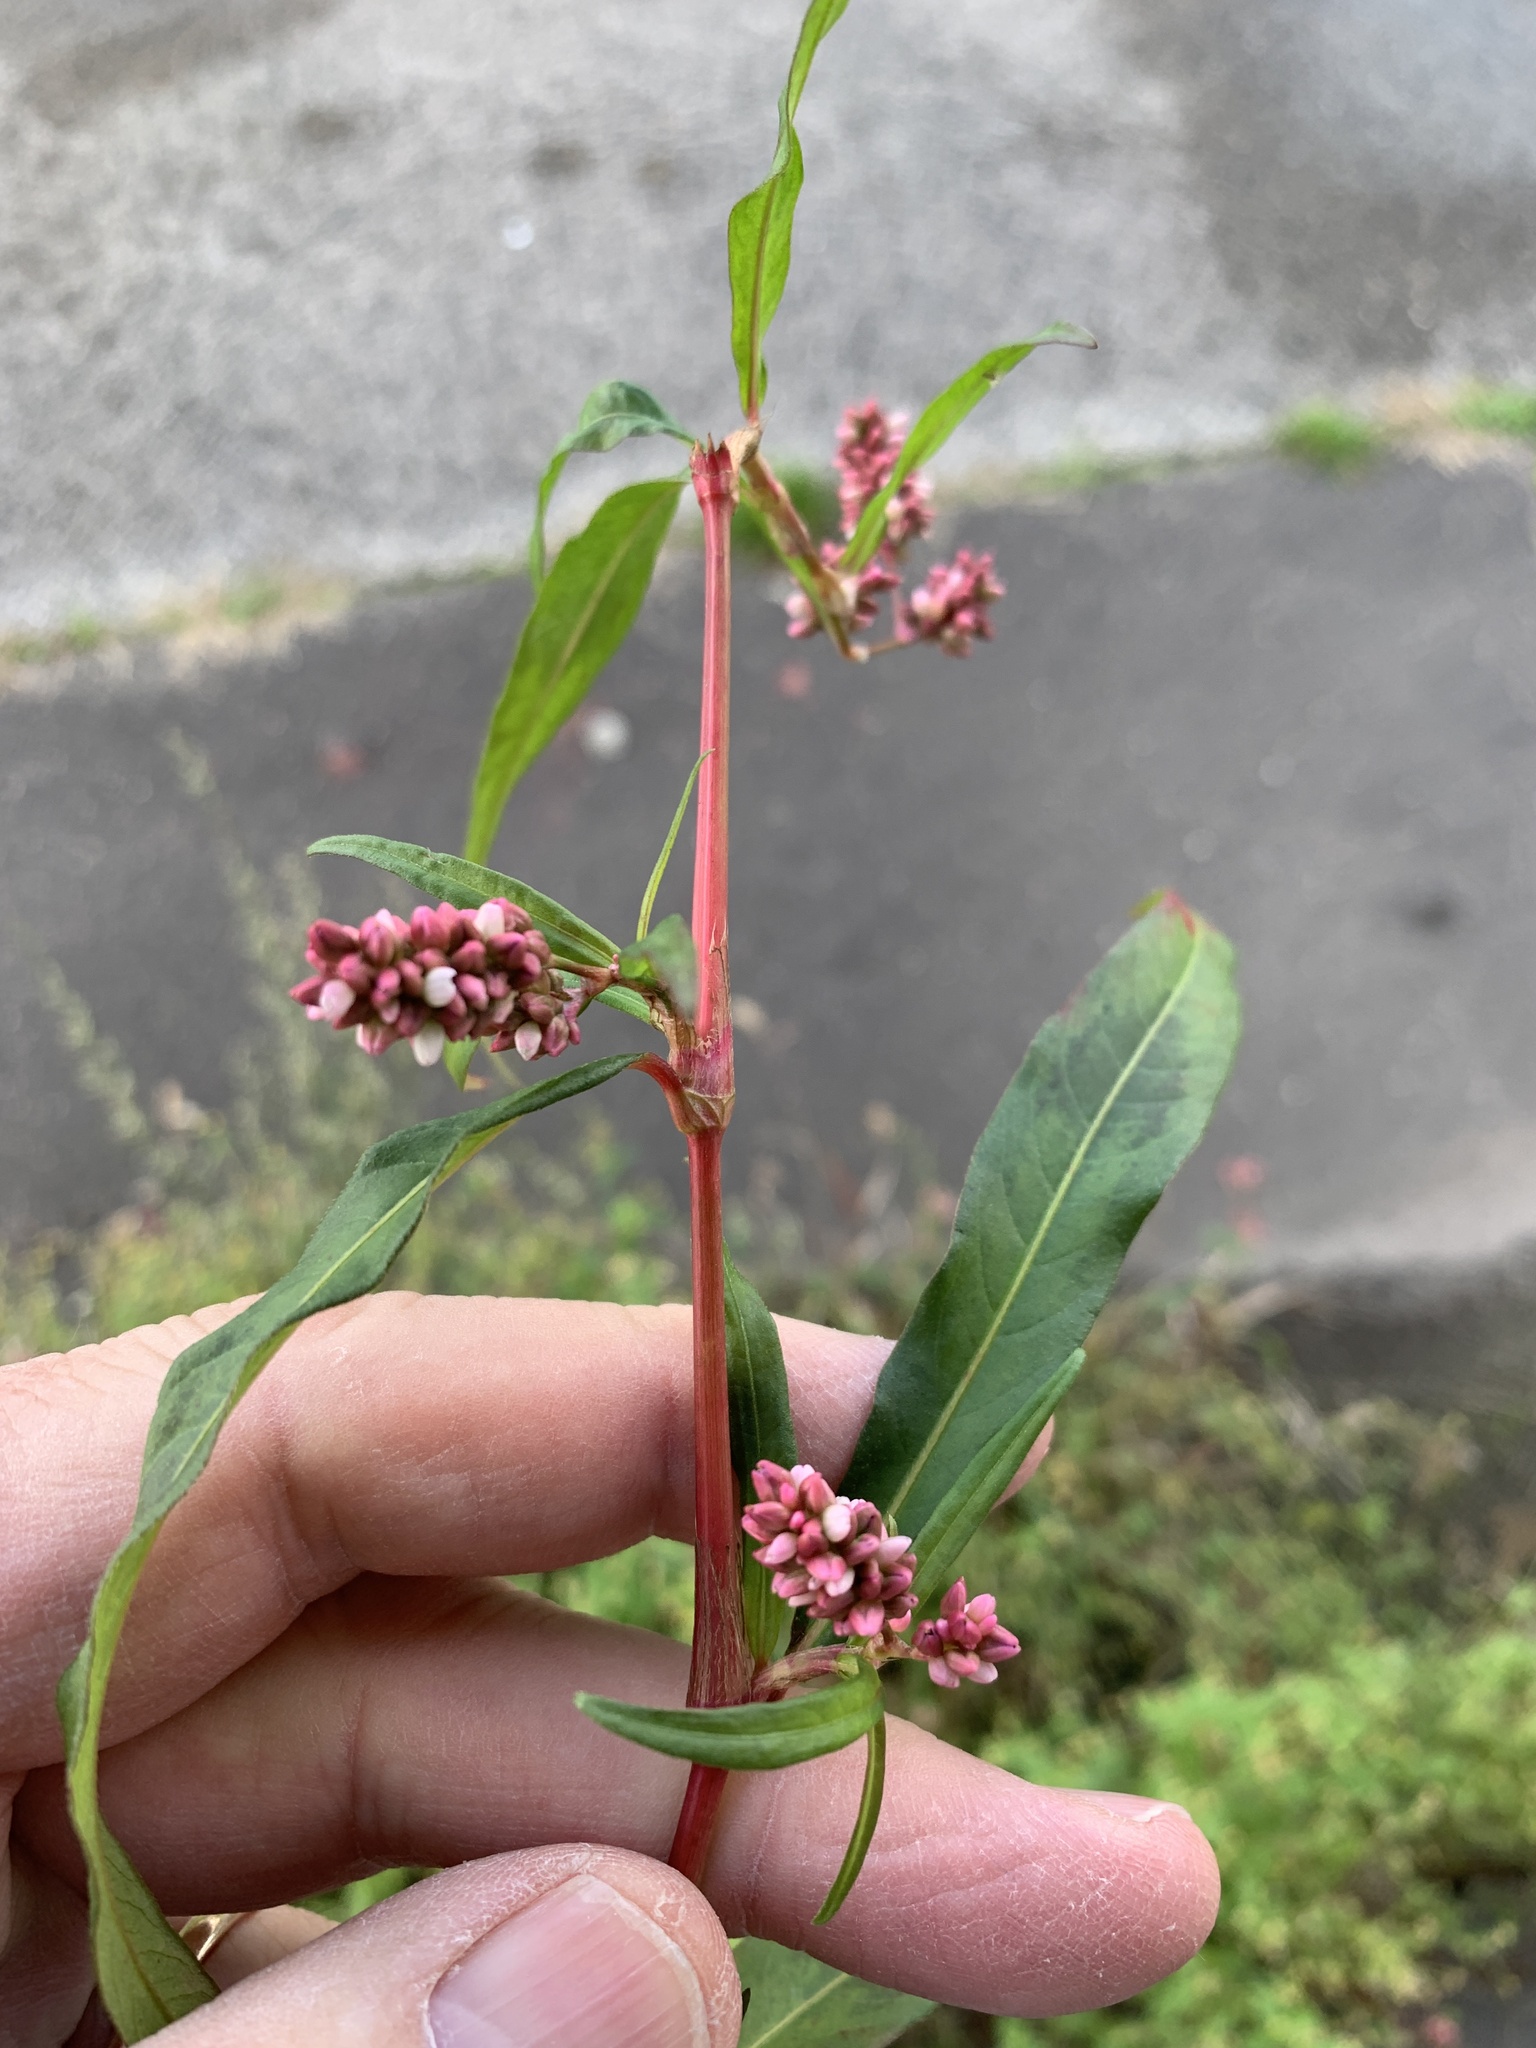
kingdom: Plantae
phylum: Tracheophyta
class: Magnoliopsida
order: Caryophyllales
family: Polygonaceae
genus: Persicaria
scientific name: Persicaria lapathifolia
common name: Curlytop knotweed
